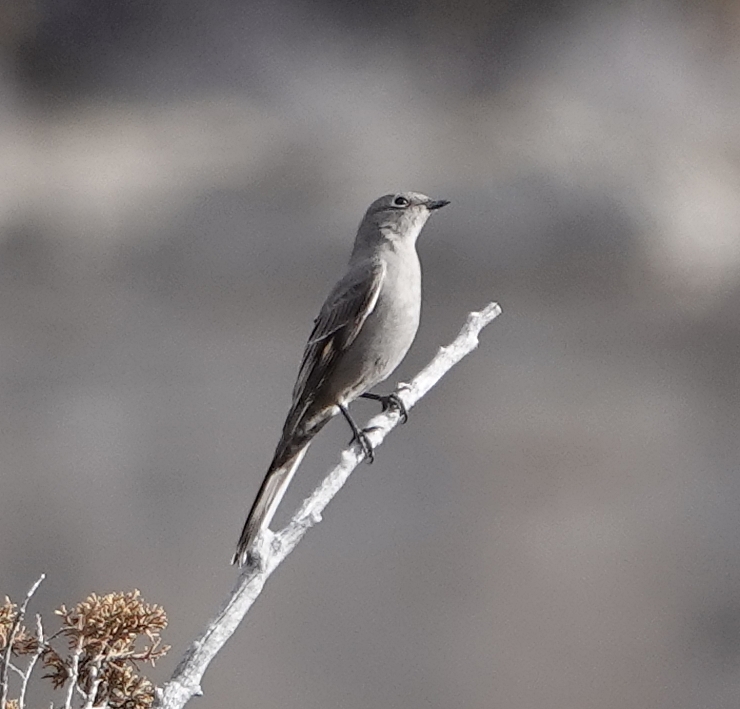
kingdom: Animalia
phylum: Chordata
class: Aves
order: Passeriformes
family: Turdidae
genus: Myadestes
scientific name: Myadestes townsendi
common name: Townsend's solitaire
